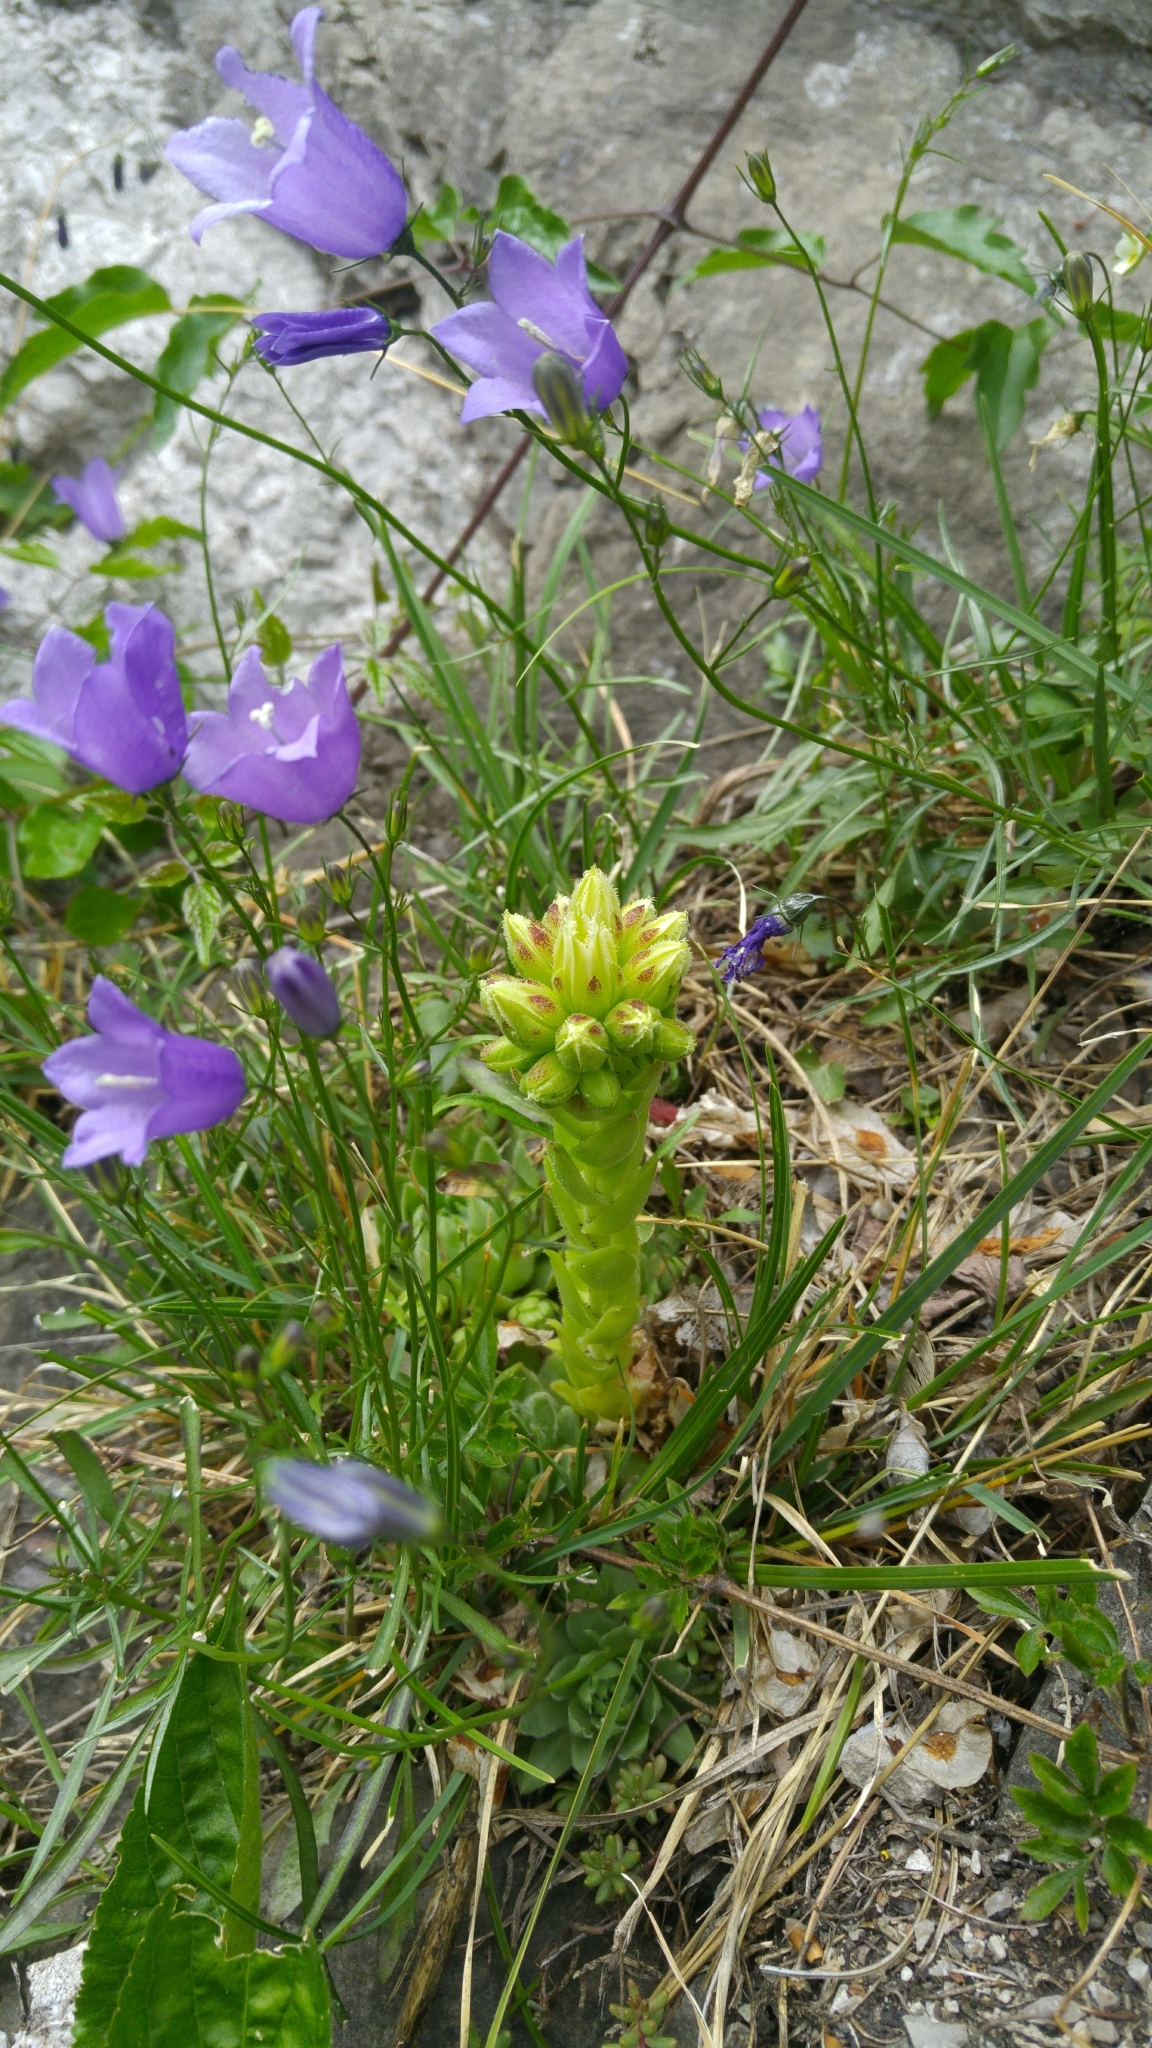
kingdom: Plantae
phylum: Tracheophyta
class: Magnoliopsida
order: Saxifragales
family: Crassulaceae
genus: Sempervivum
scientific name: Sempervivum globiferum
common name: Rolling hen-and-chicks
